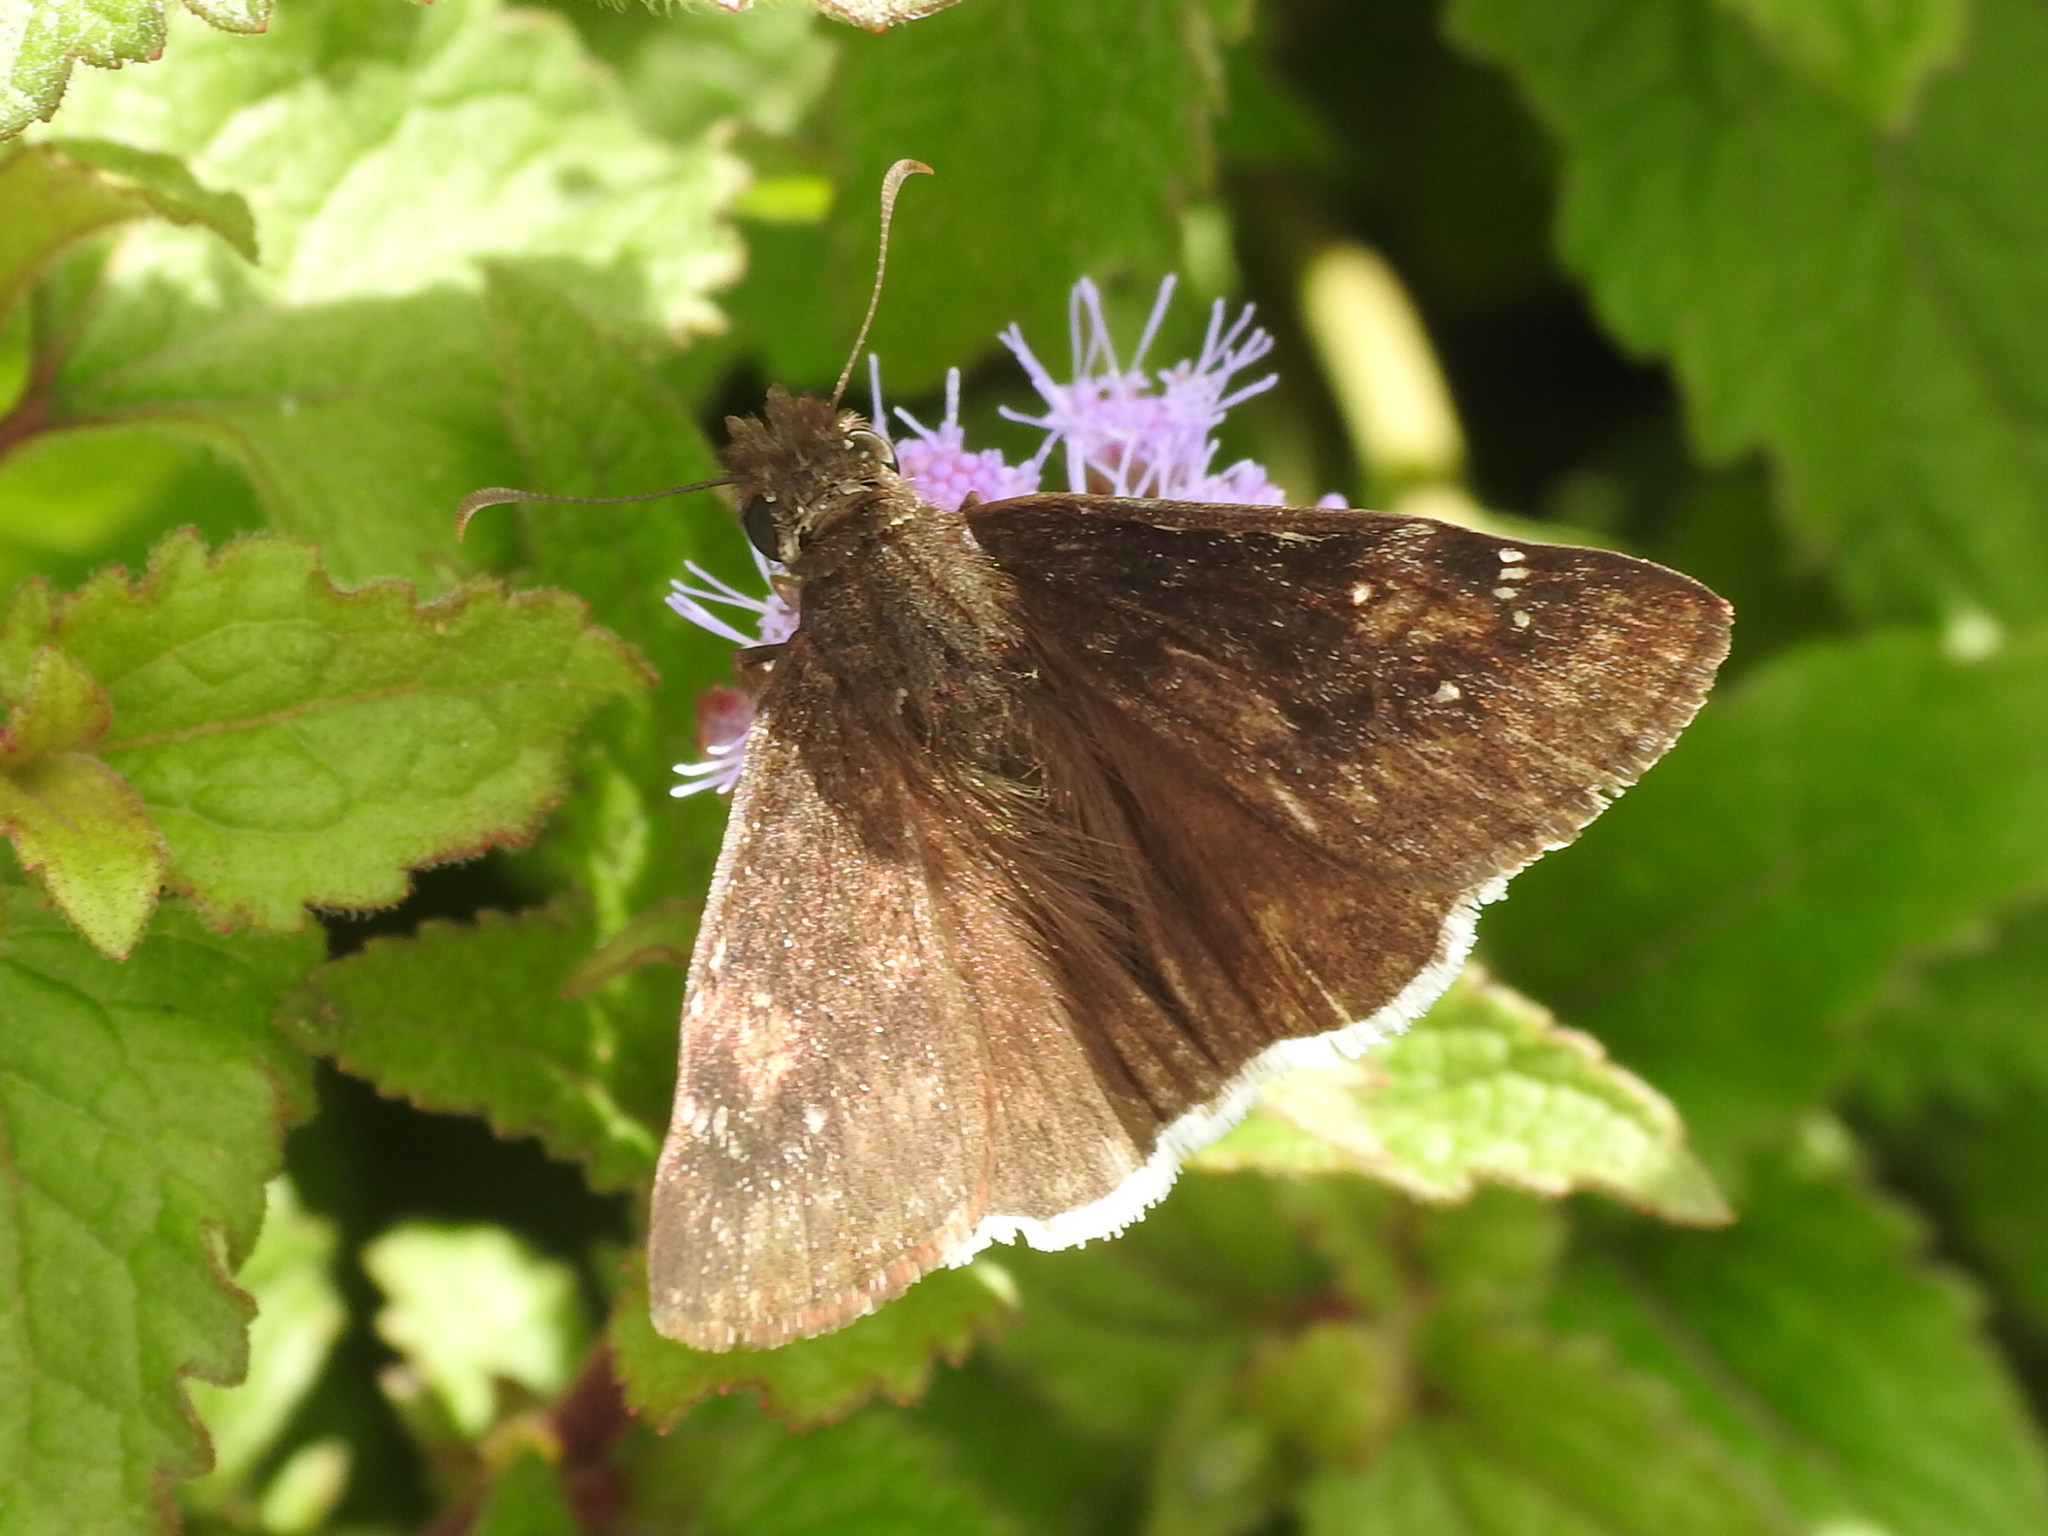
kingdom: Animalia
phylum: Arthropoda
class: Insecta
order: Lepidoptera
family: Hesperiidae
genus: Erynnis
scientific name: Erynnis funeralis
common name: Funereal duskywing
